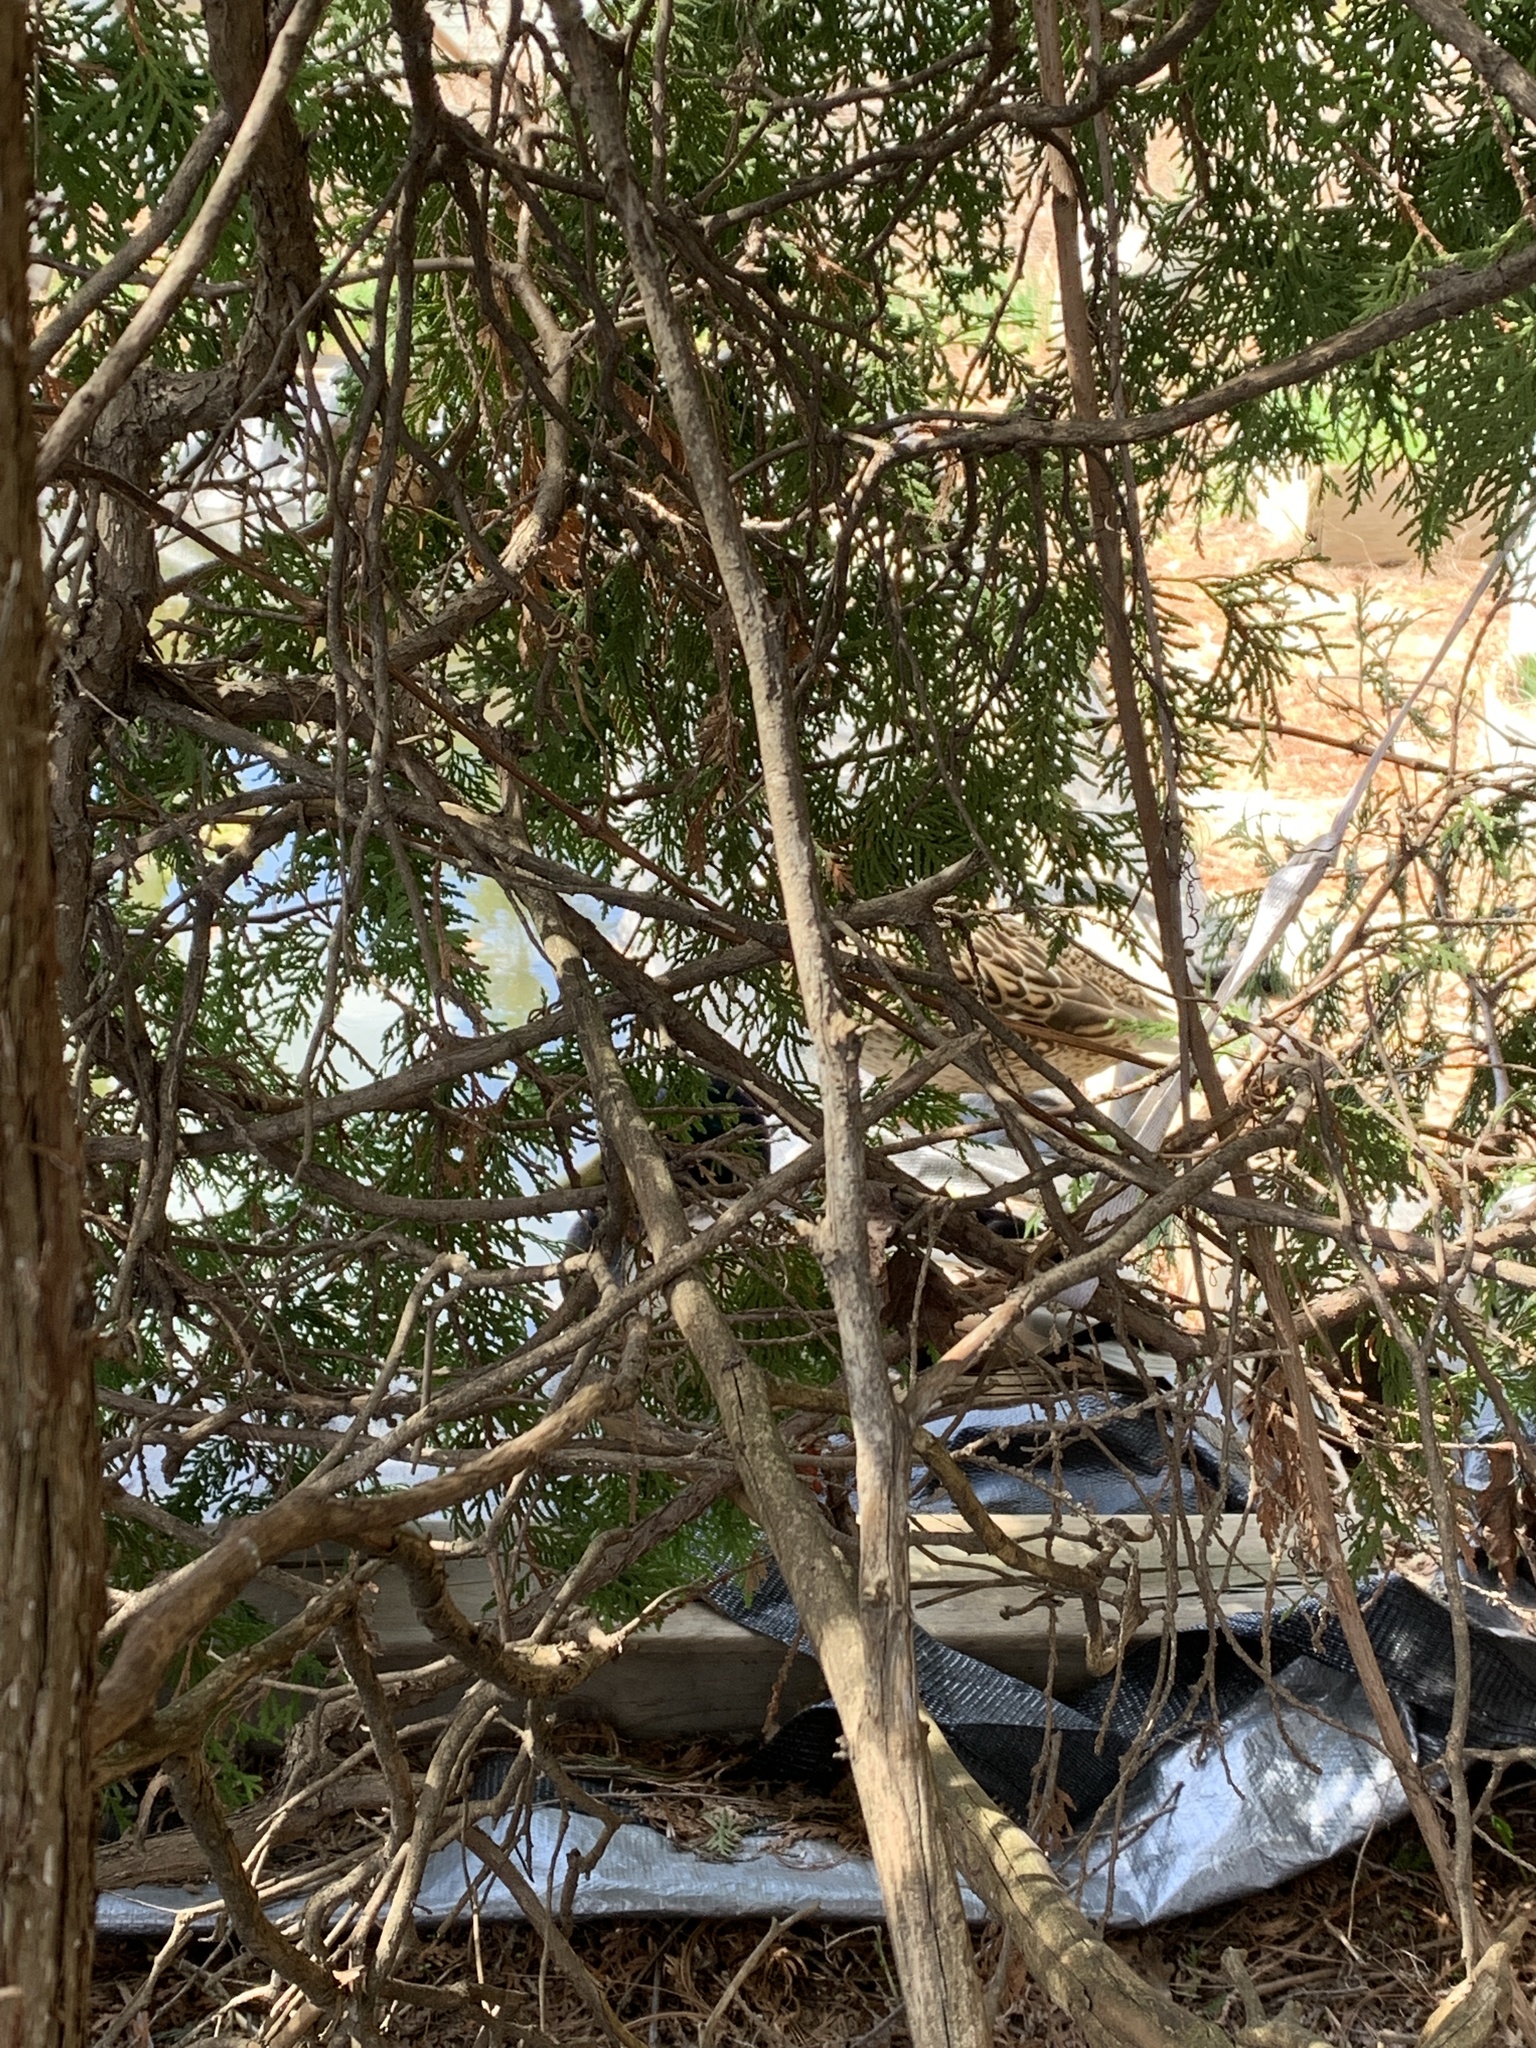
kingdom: Animalia
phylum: Chordata
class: Aves
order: Anseriformes
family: Anatidae
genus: Anas
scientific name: Anas platyrhynchos
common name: Mallard
